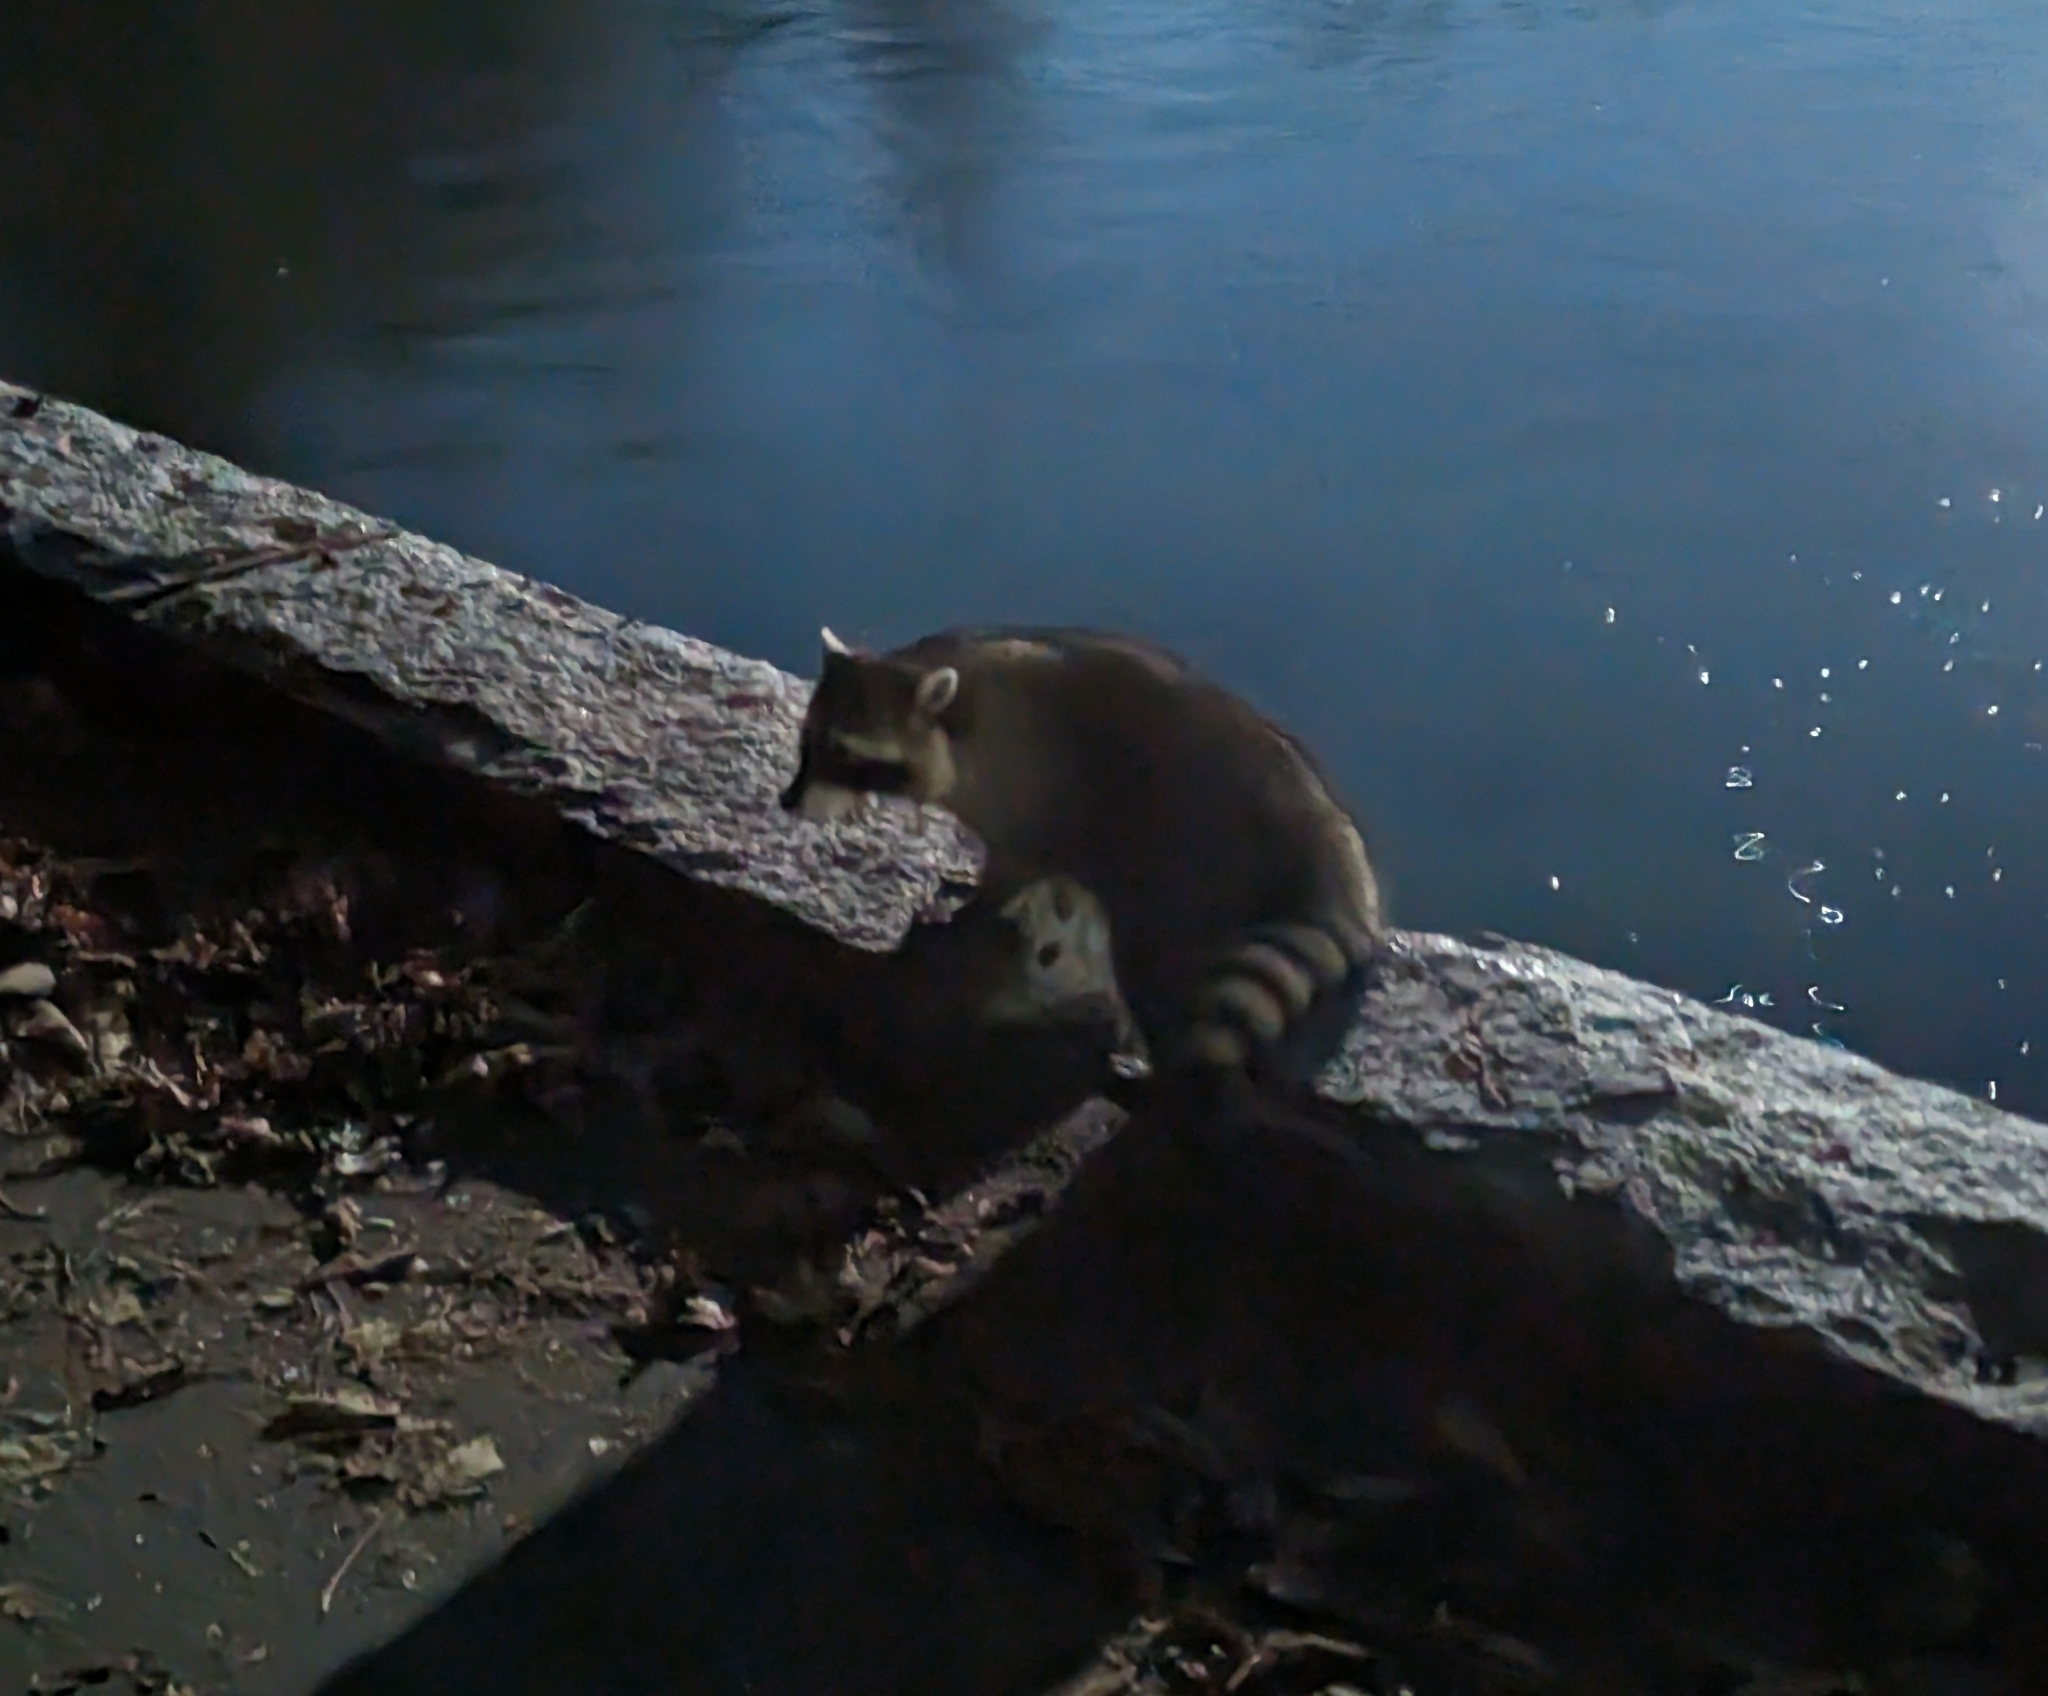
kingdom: Animalia
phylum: Chordata
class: Mammalia
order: Carnivora
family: Procyonidae
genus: Procyon
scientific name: Procyon lotor
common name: Raccoon
